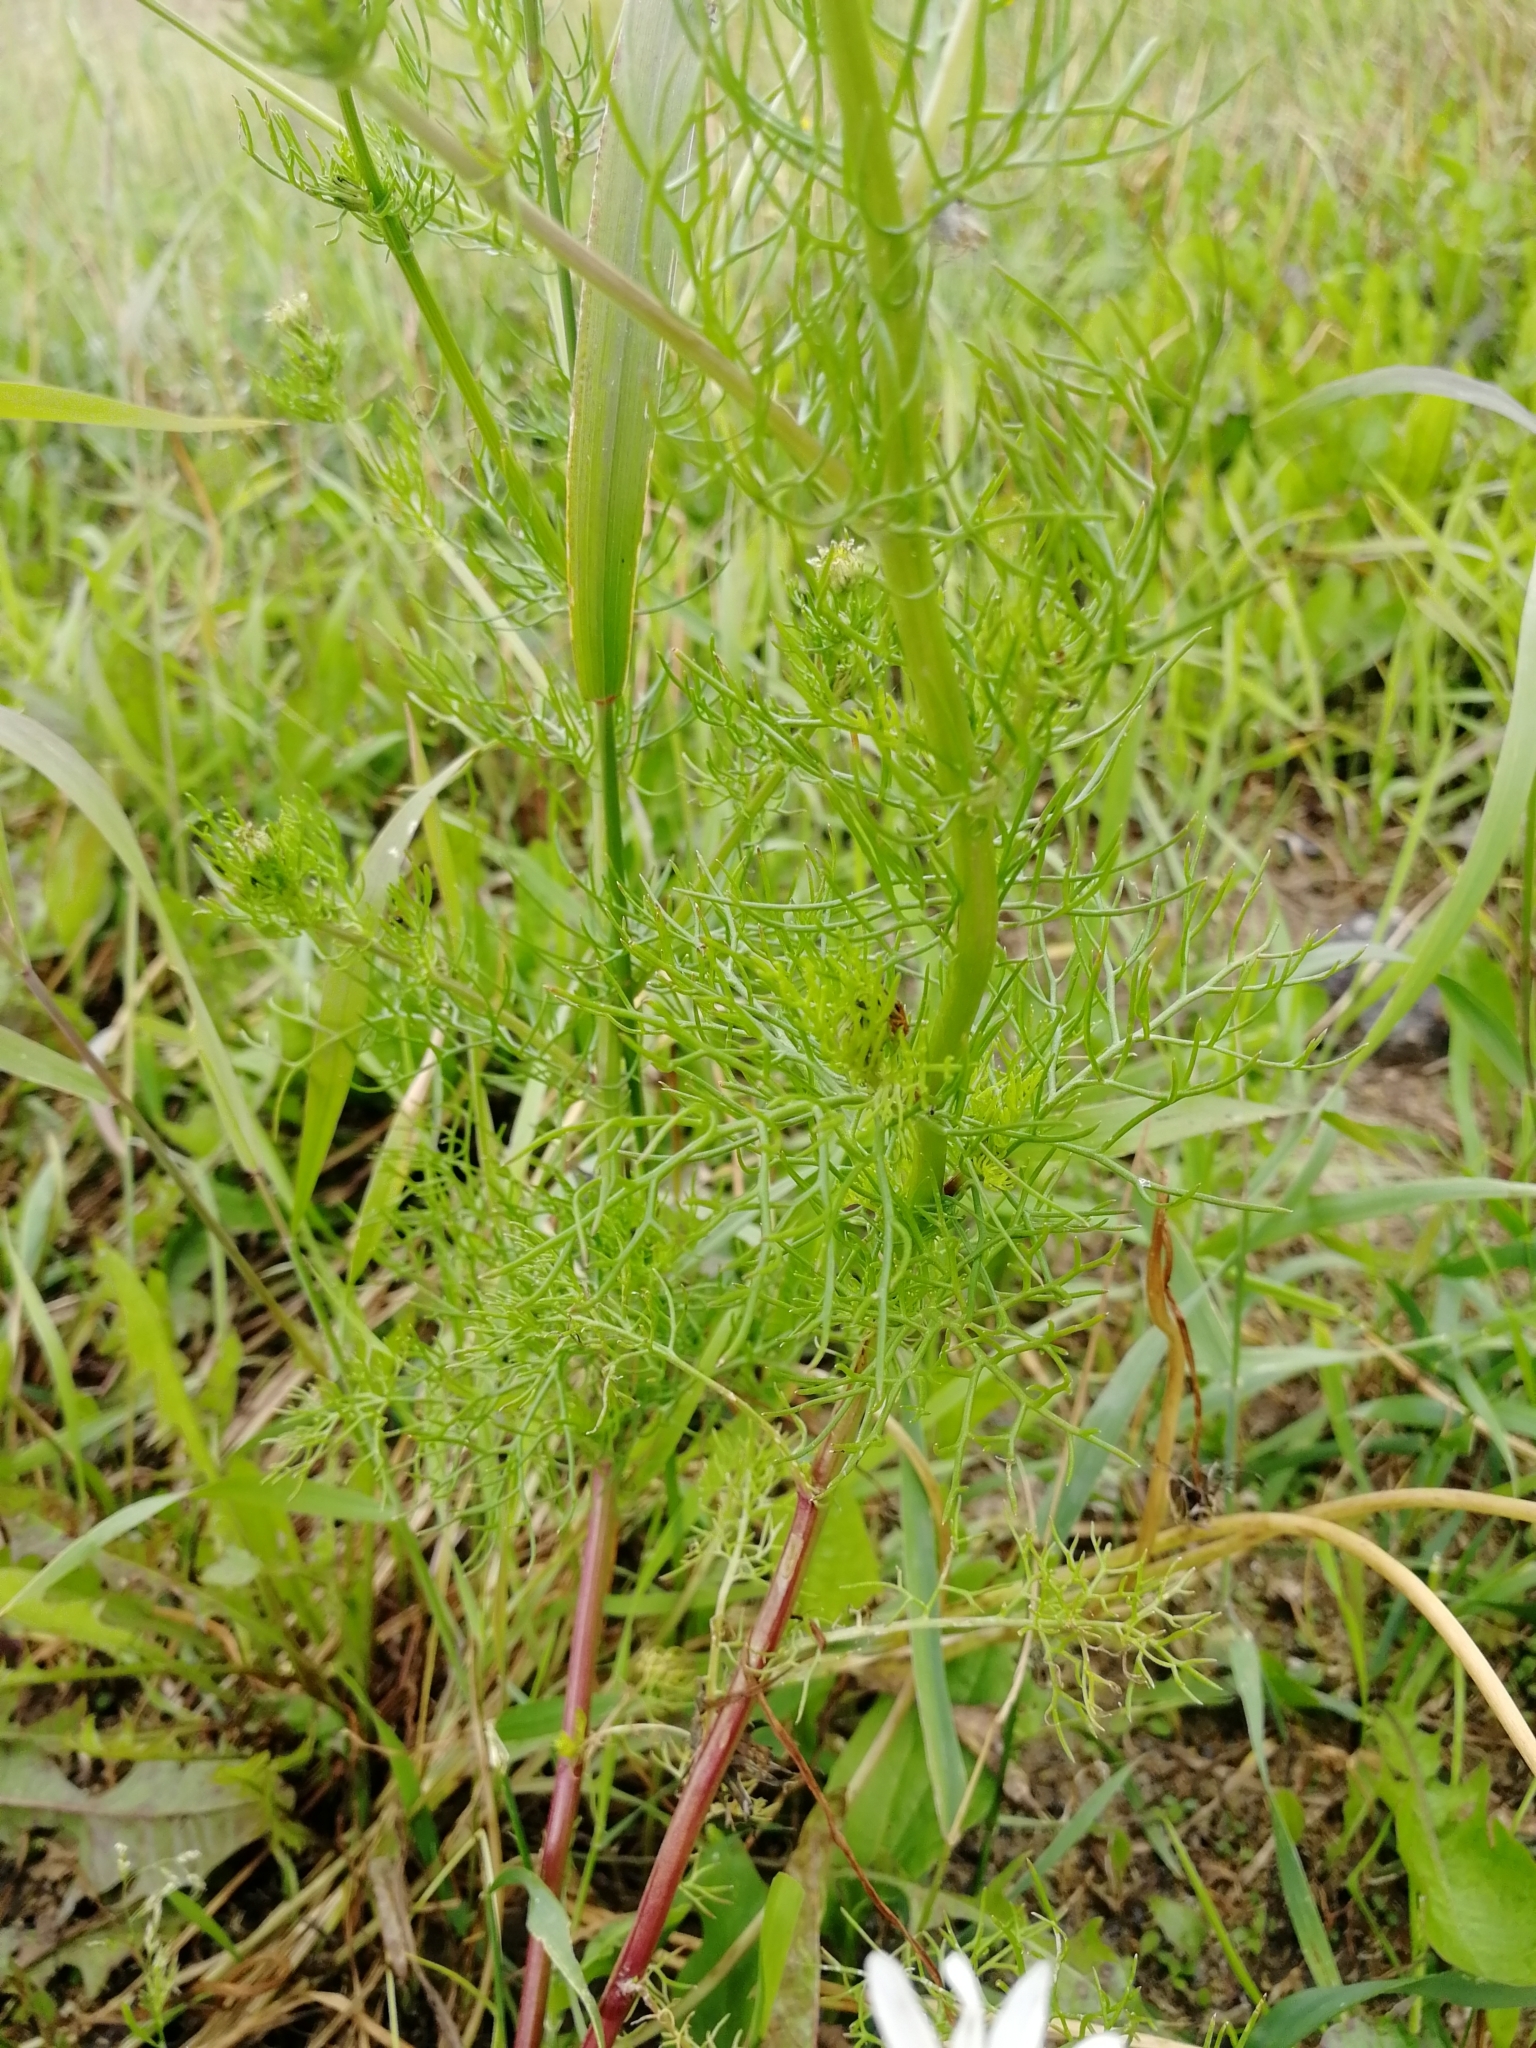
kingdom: Plantae
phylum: Tracheophyta
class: Magnoliopsida
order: Asterales
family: Asteraceae
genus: Tripleurospermum
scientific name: Tripleurospermum inodorum
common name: Scentless mayweed
